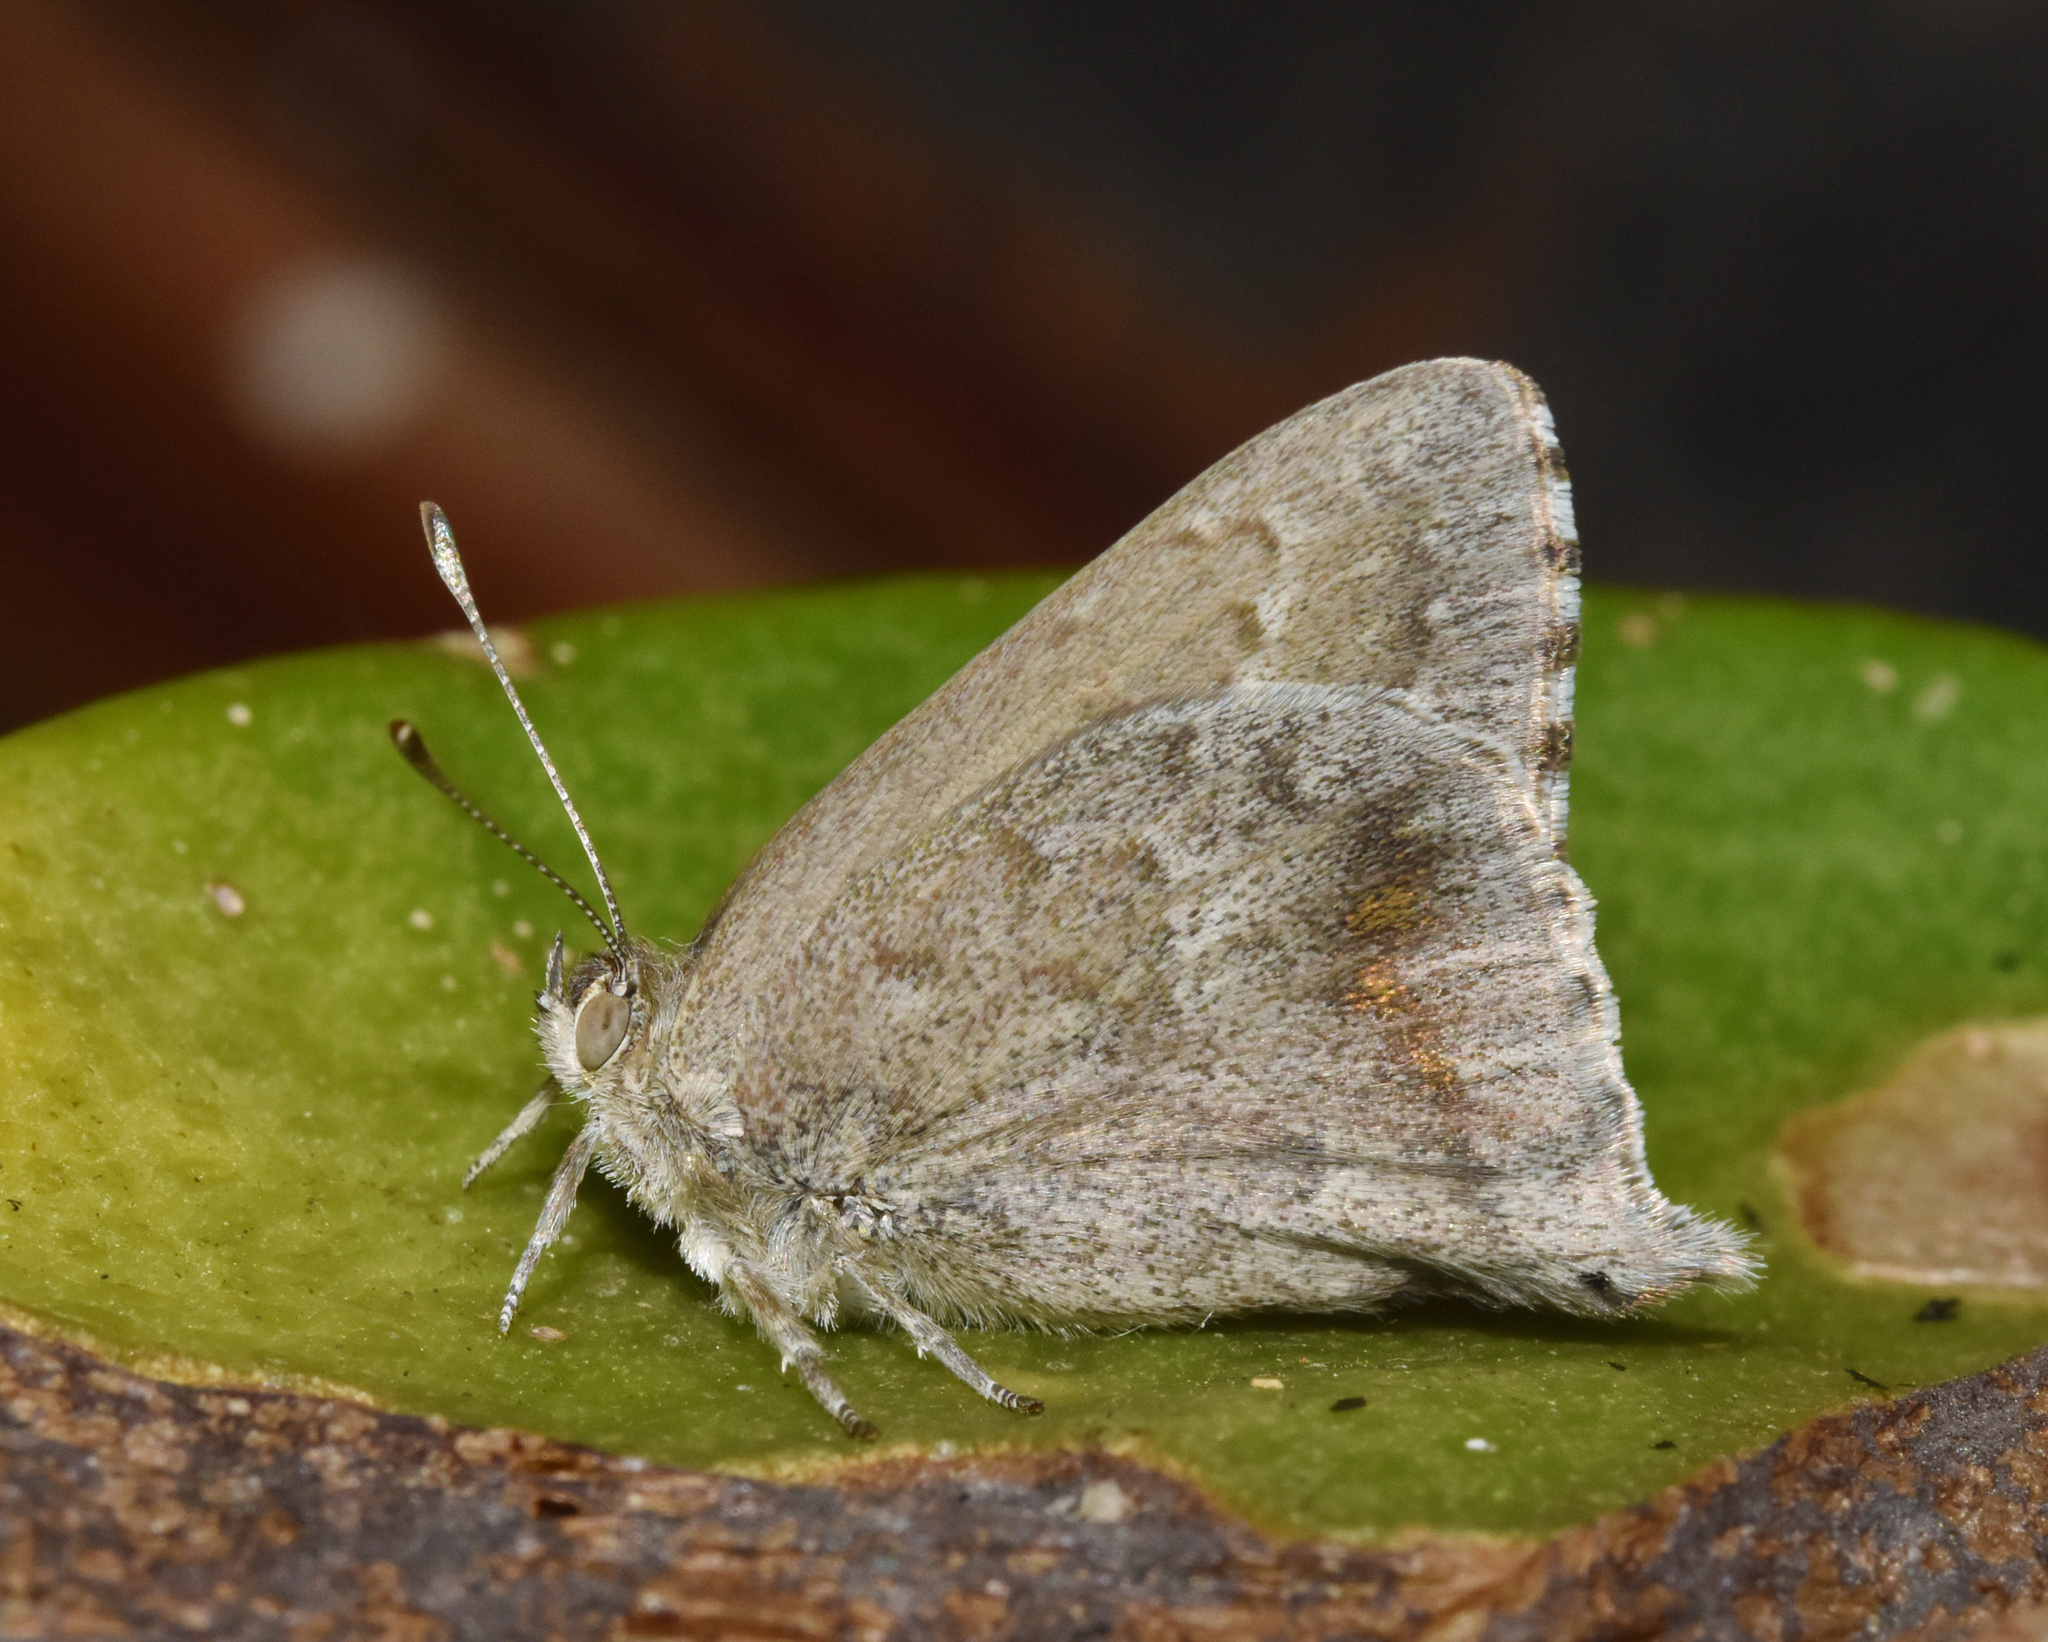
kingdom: Animalia
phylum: Arthropoda
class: Insecta
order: Lepidoptera
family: Lycaenidae
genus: Leptomyrina
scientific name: Leptomyrina gorgias
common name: Common black-eye
